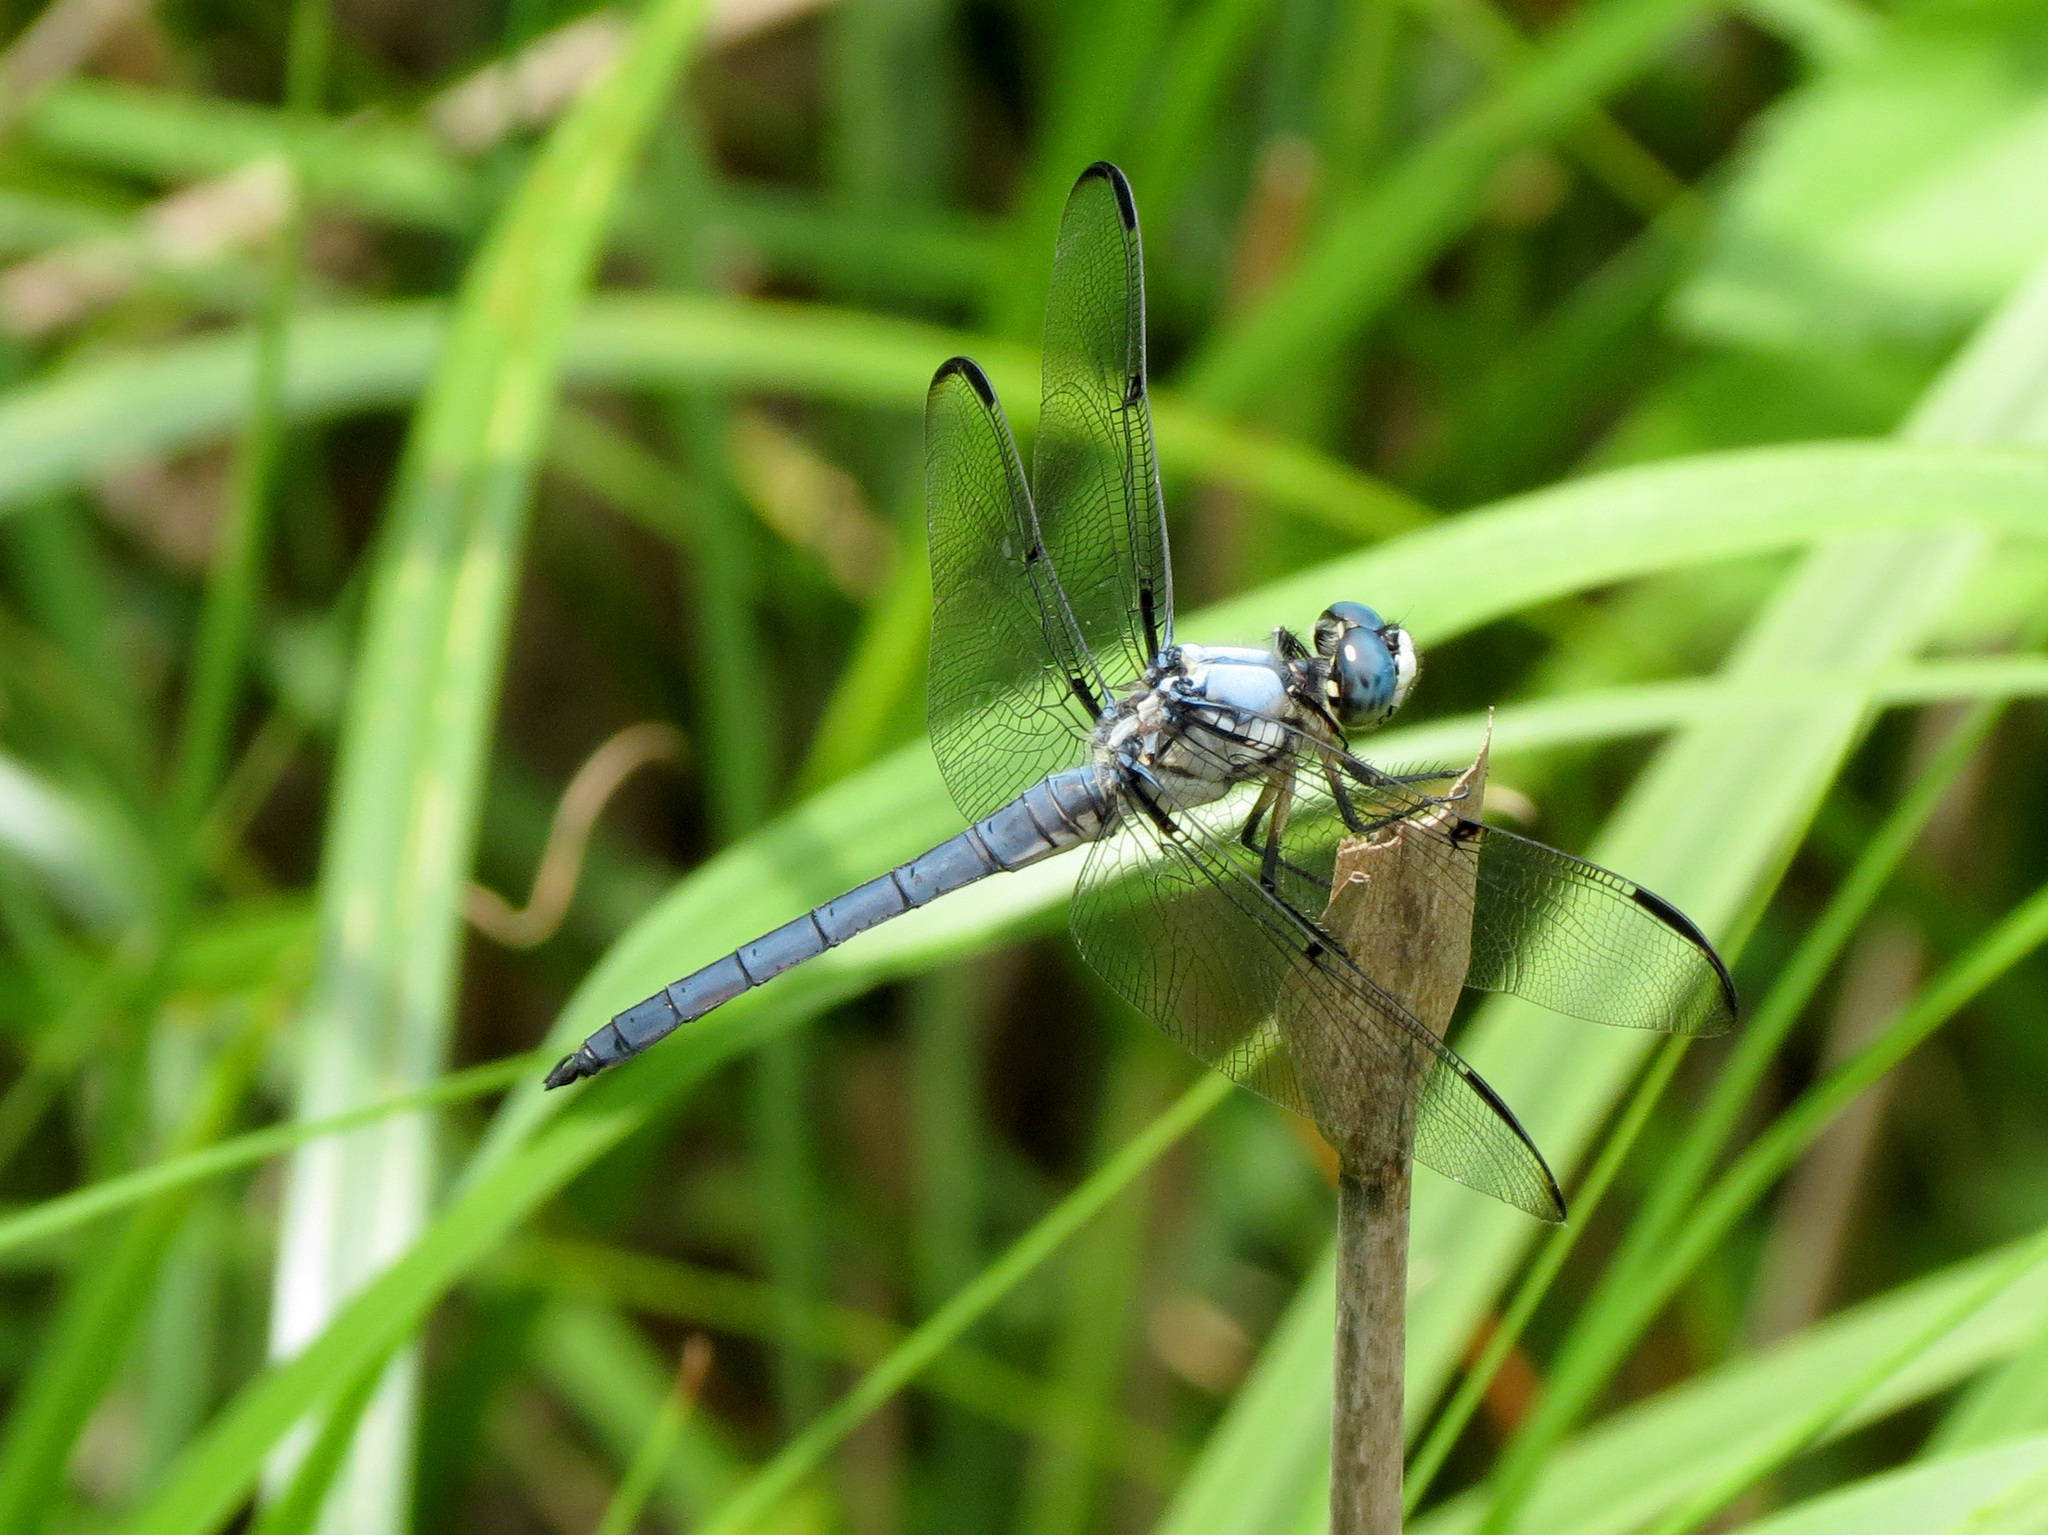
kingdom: Animalia
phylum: Arthropoda
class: Insecta
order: Odonata
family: Libellulidae
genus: Libellula
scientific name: Libellula vibrans
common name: Great blue skimmer
